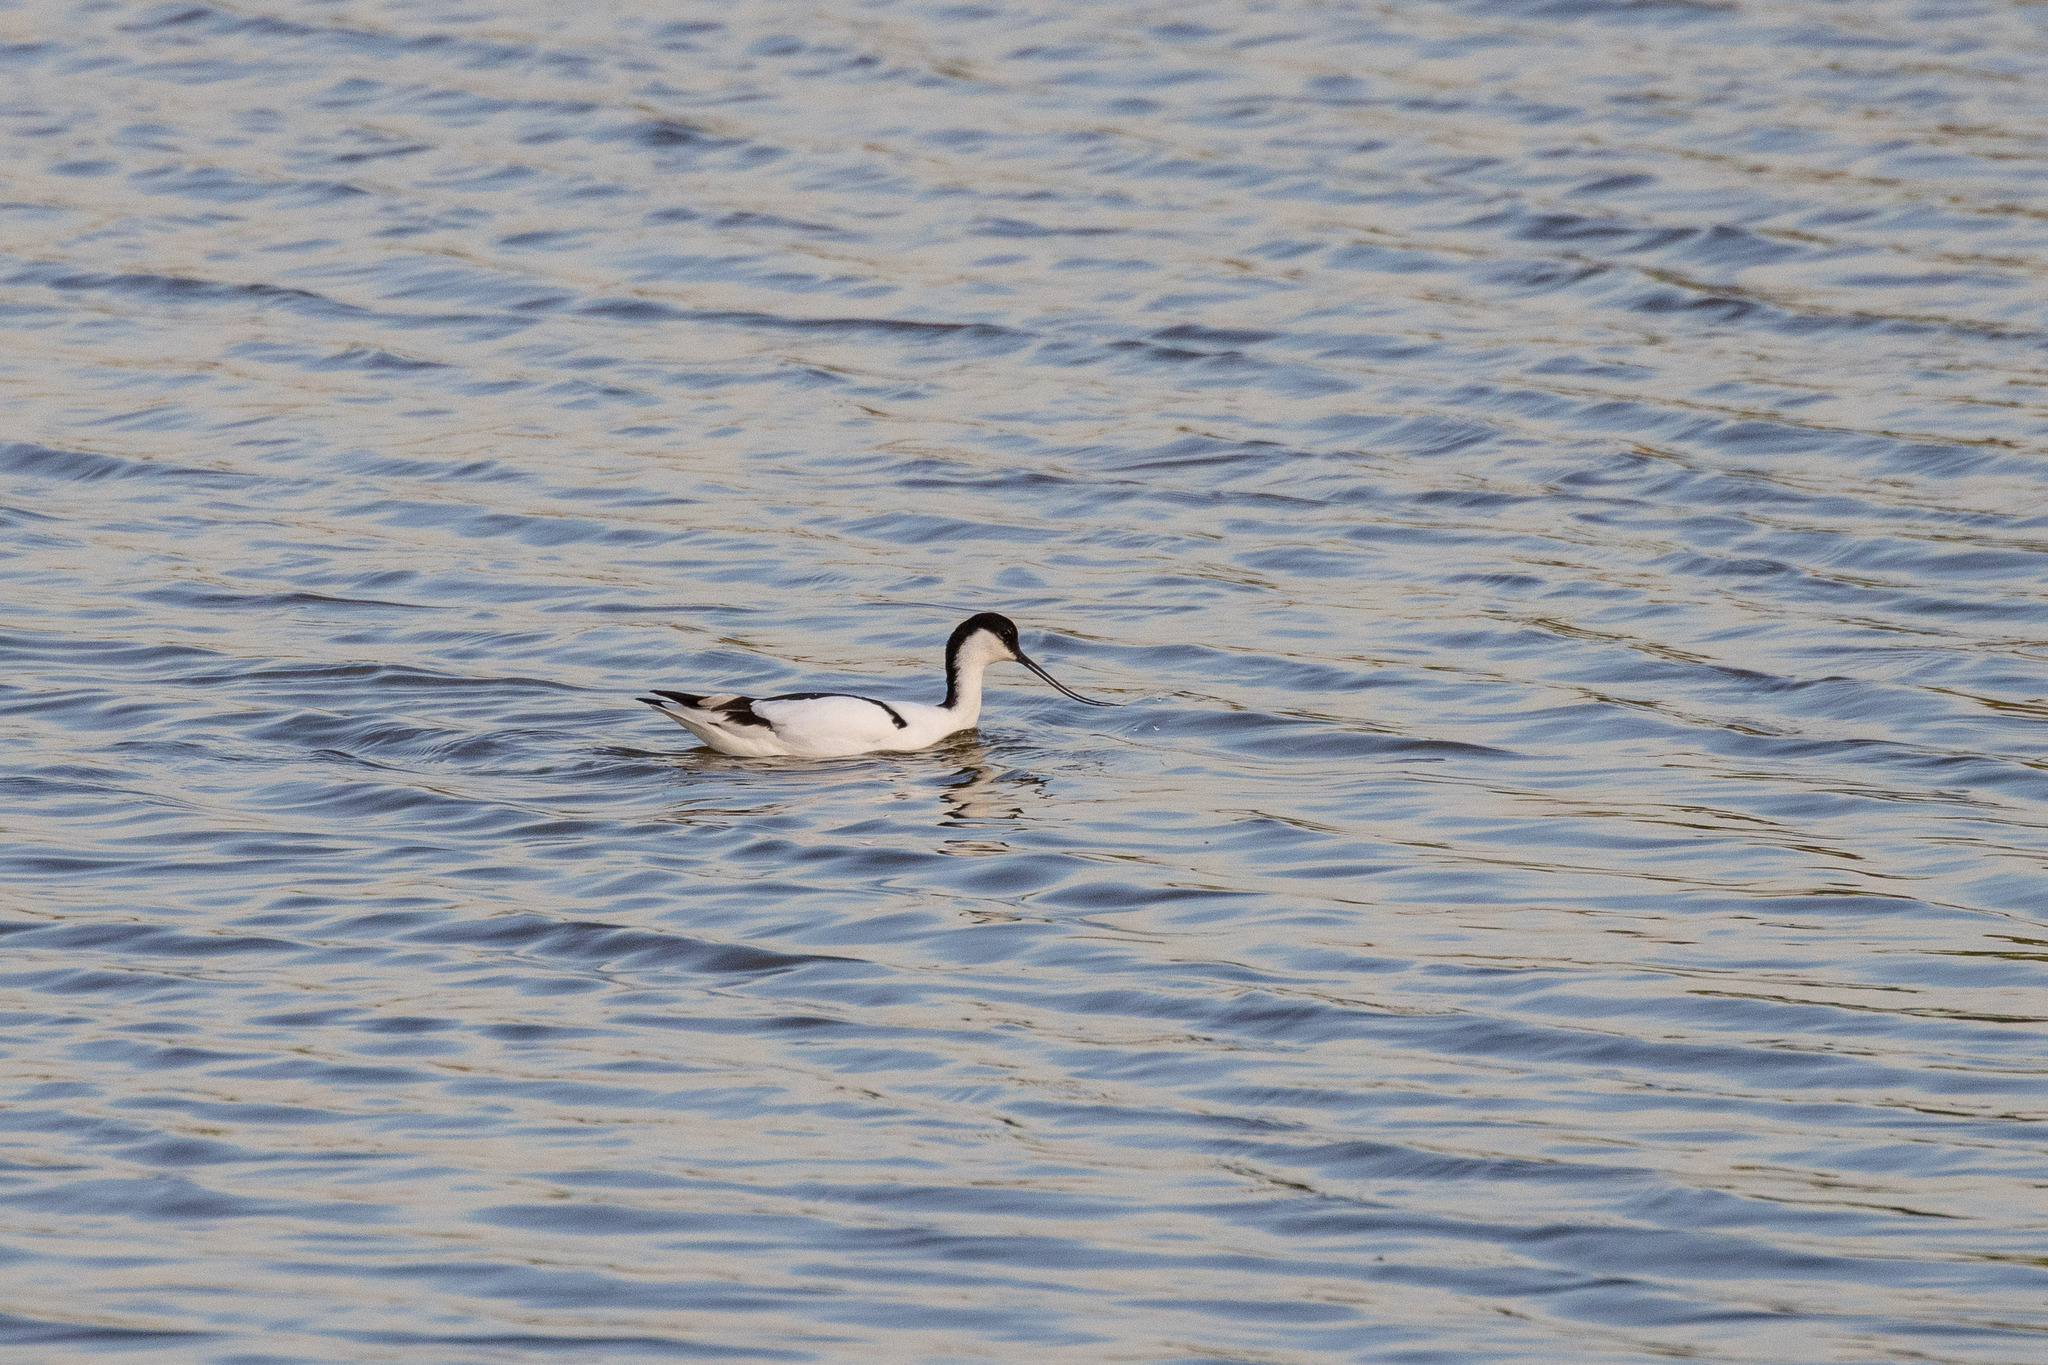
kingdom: Animalia
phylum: Chordata
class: Aves
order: Charadriiformes
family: Recurvirostridae
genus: Recurvirostra
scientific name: Recurvirostra avosetta
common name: Pied avocet
